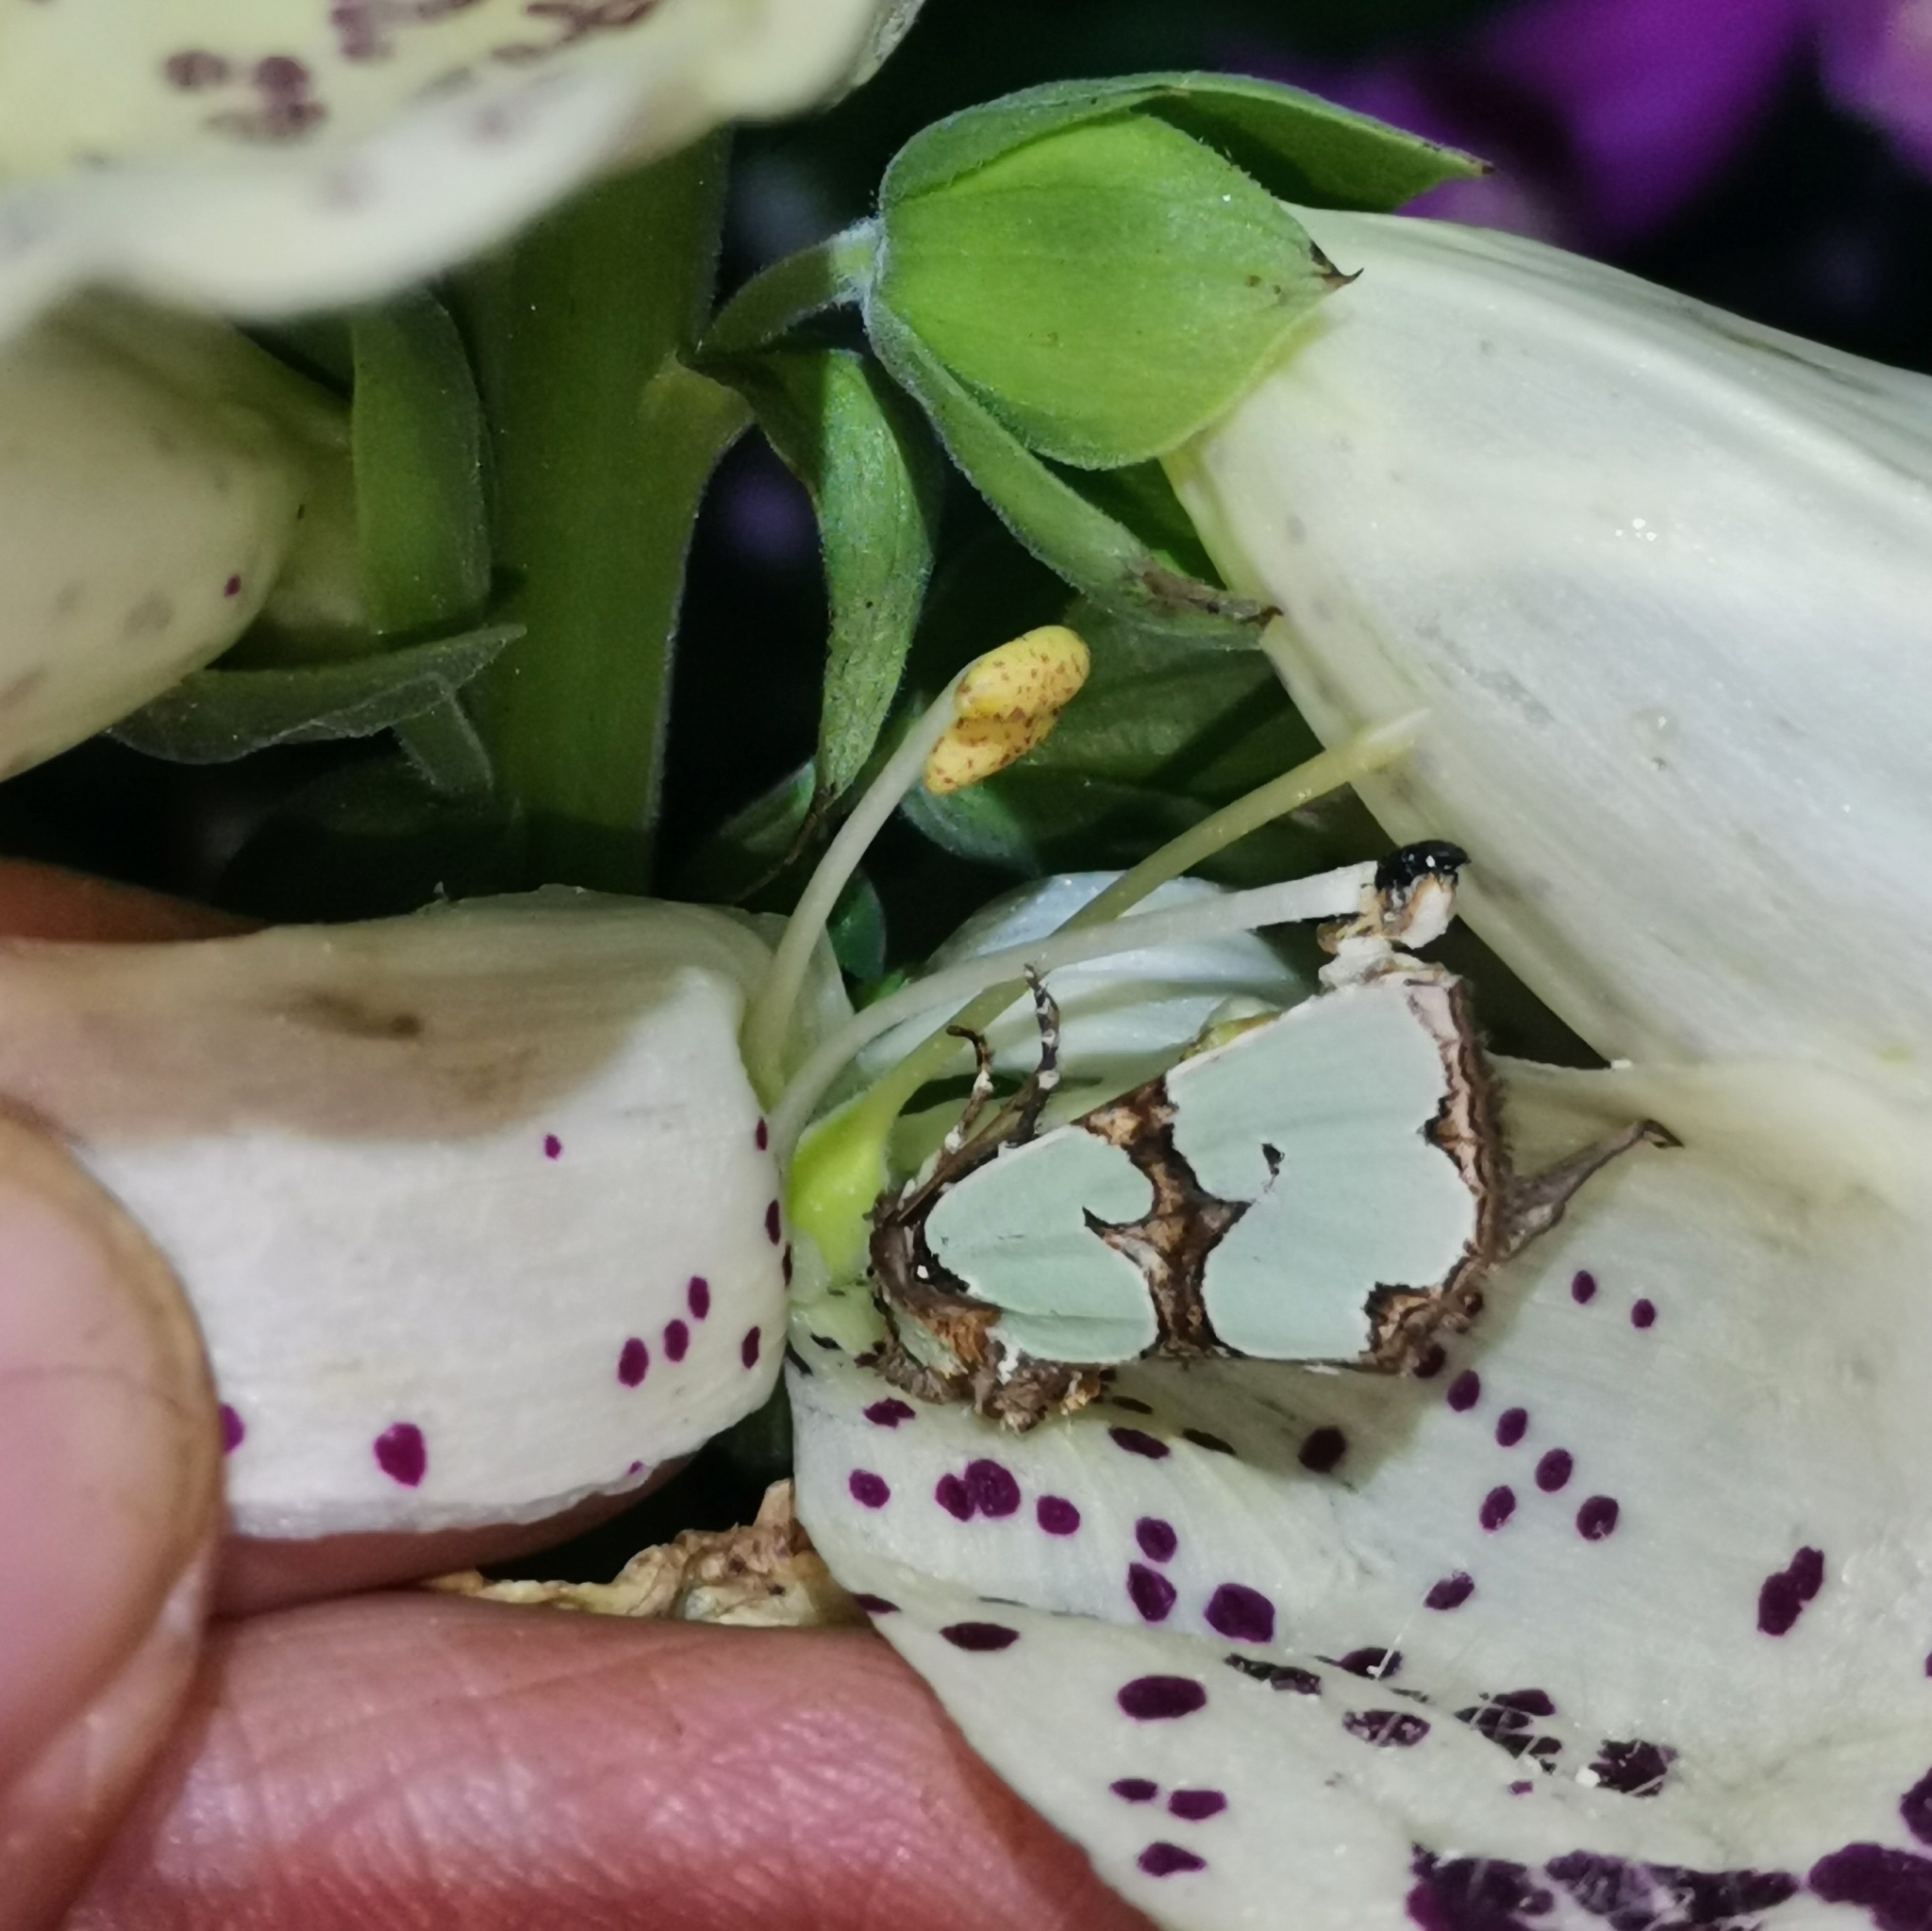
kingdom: Animalia
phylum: Arthropoda
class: Insecta
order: Lepidoptera
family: Noctuidae
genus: Staurophora
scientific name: Staurophora celsia
